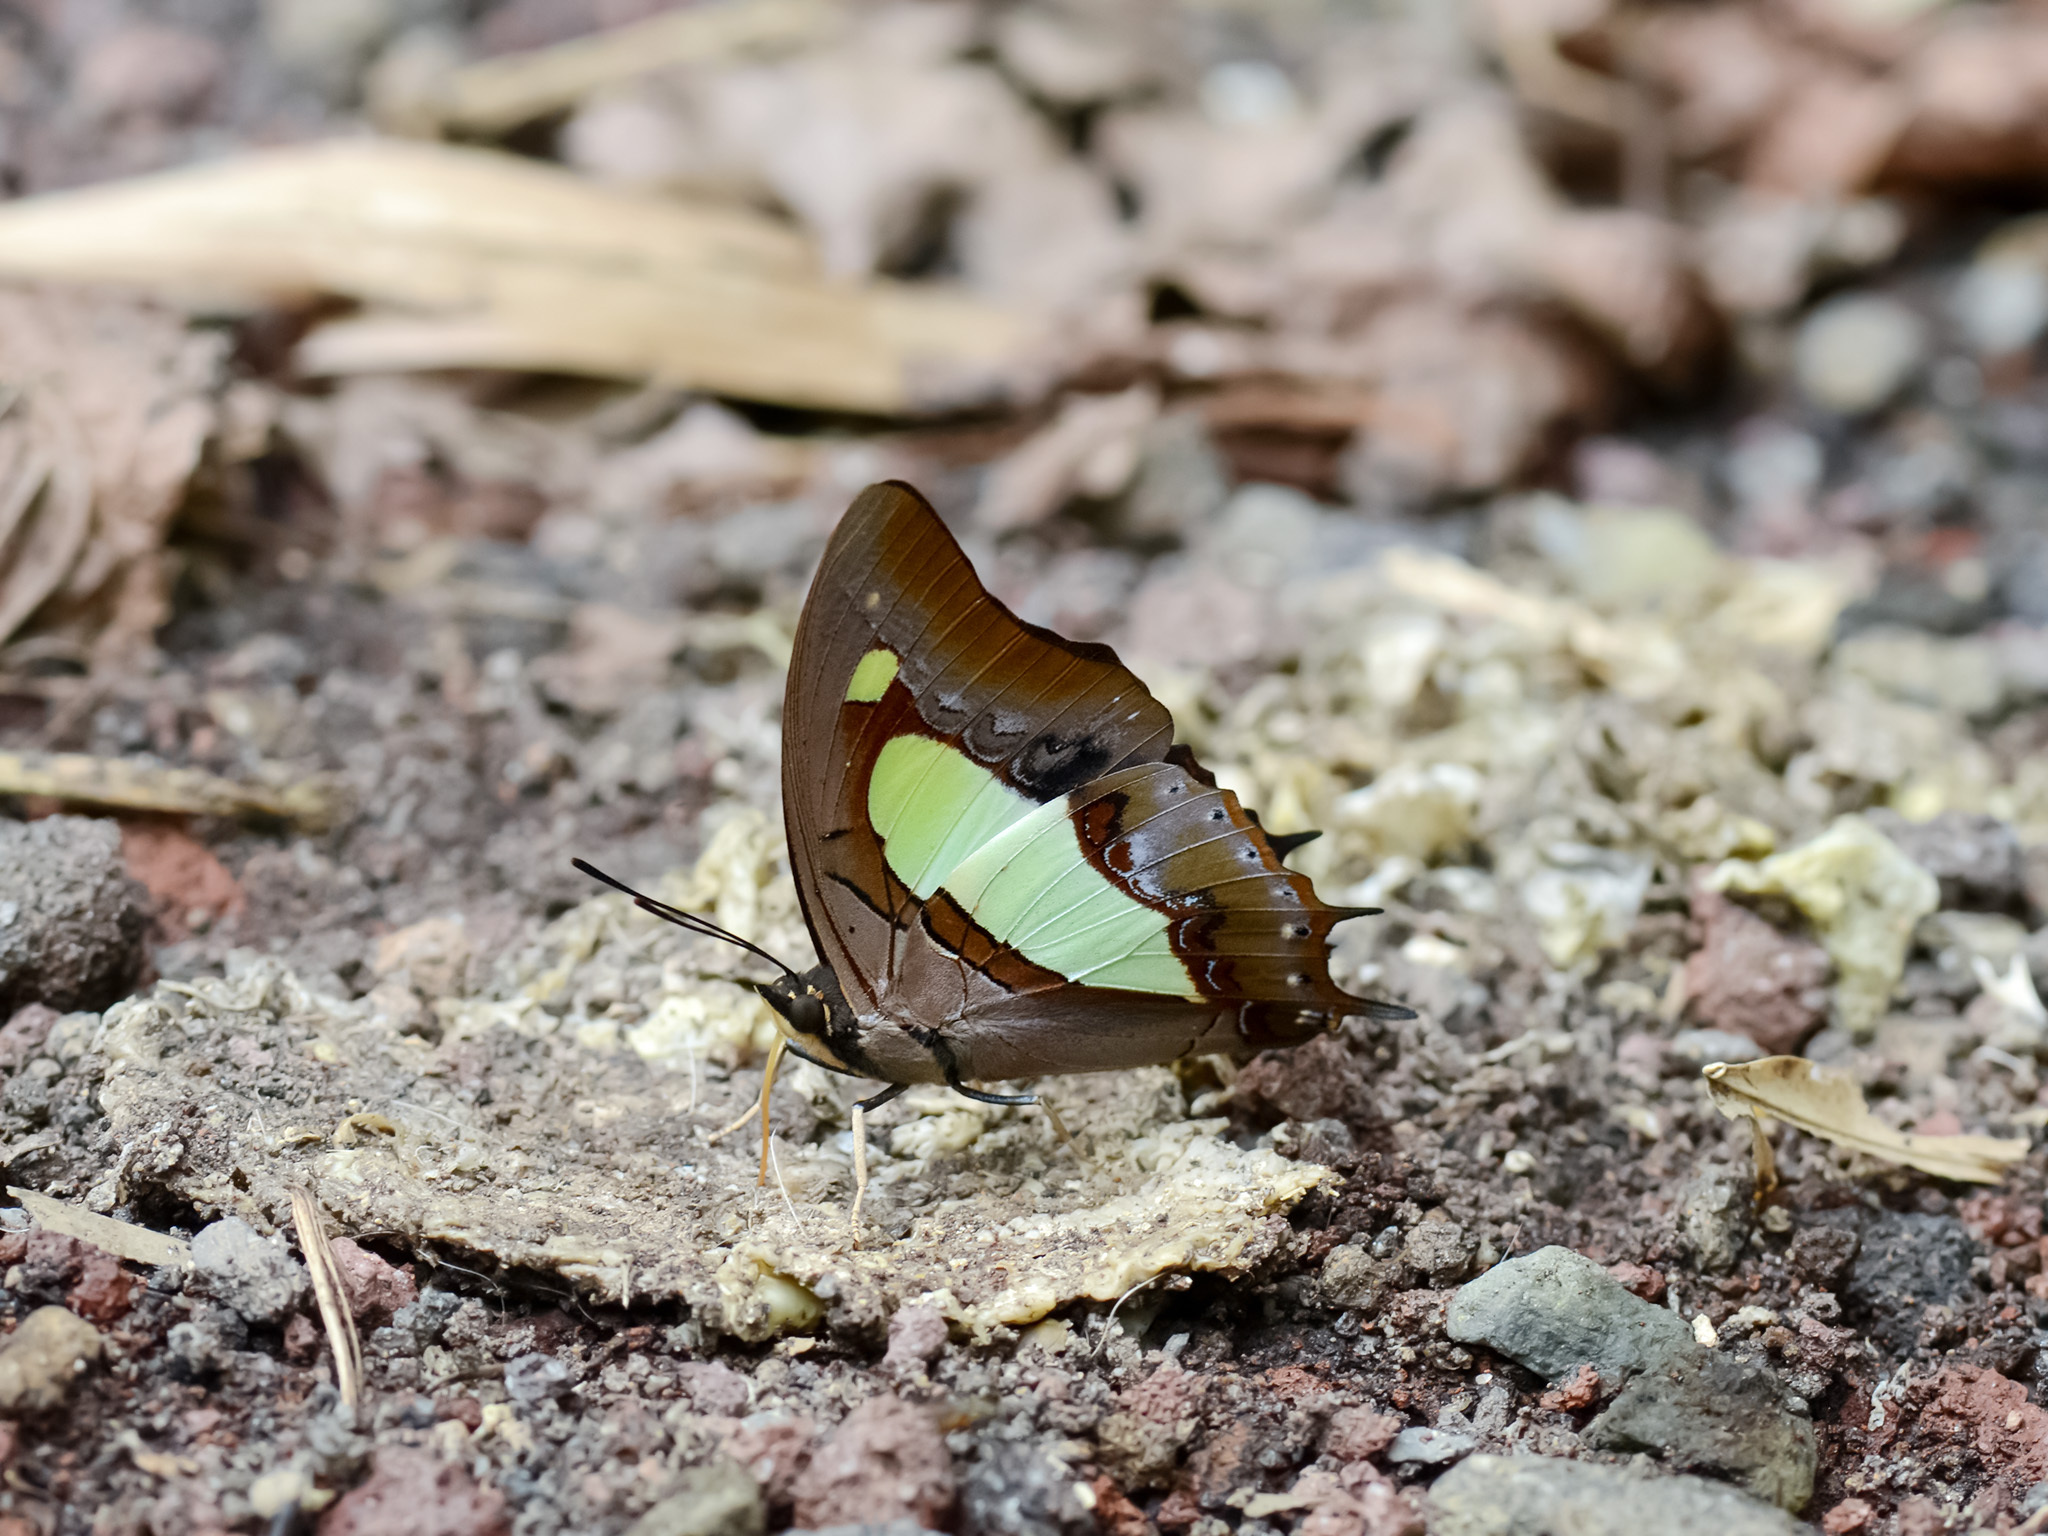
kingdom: Animalia
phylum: Arthropoda
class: Insecta
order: Lepidoptera
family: Nymphalidae
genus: Polyura
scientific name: Polyura athamas
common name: Common nawab
